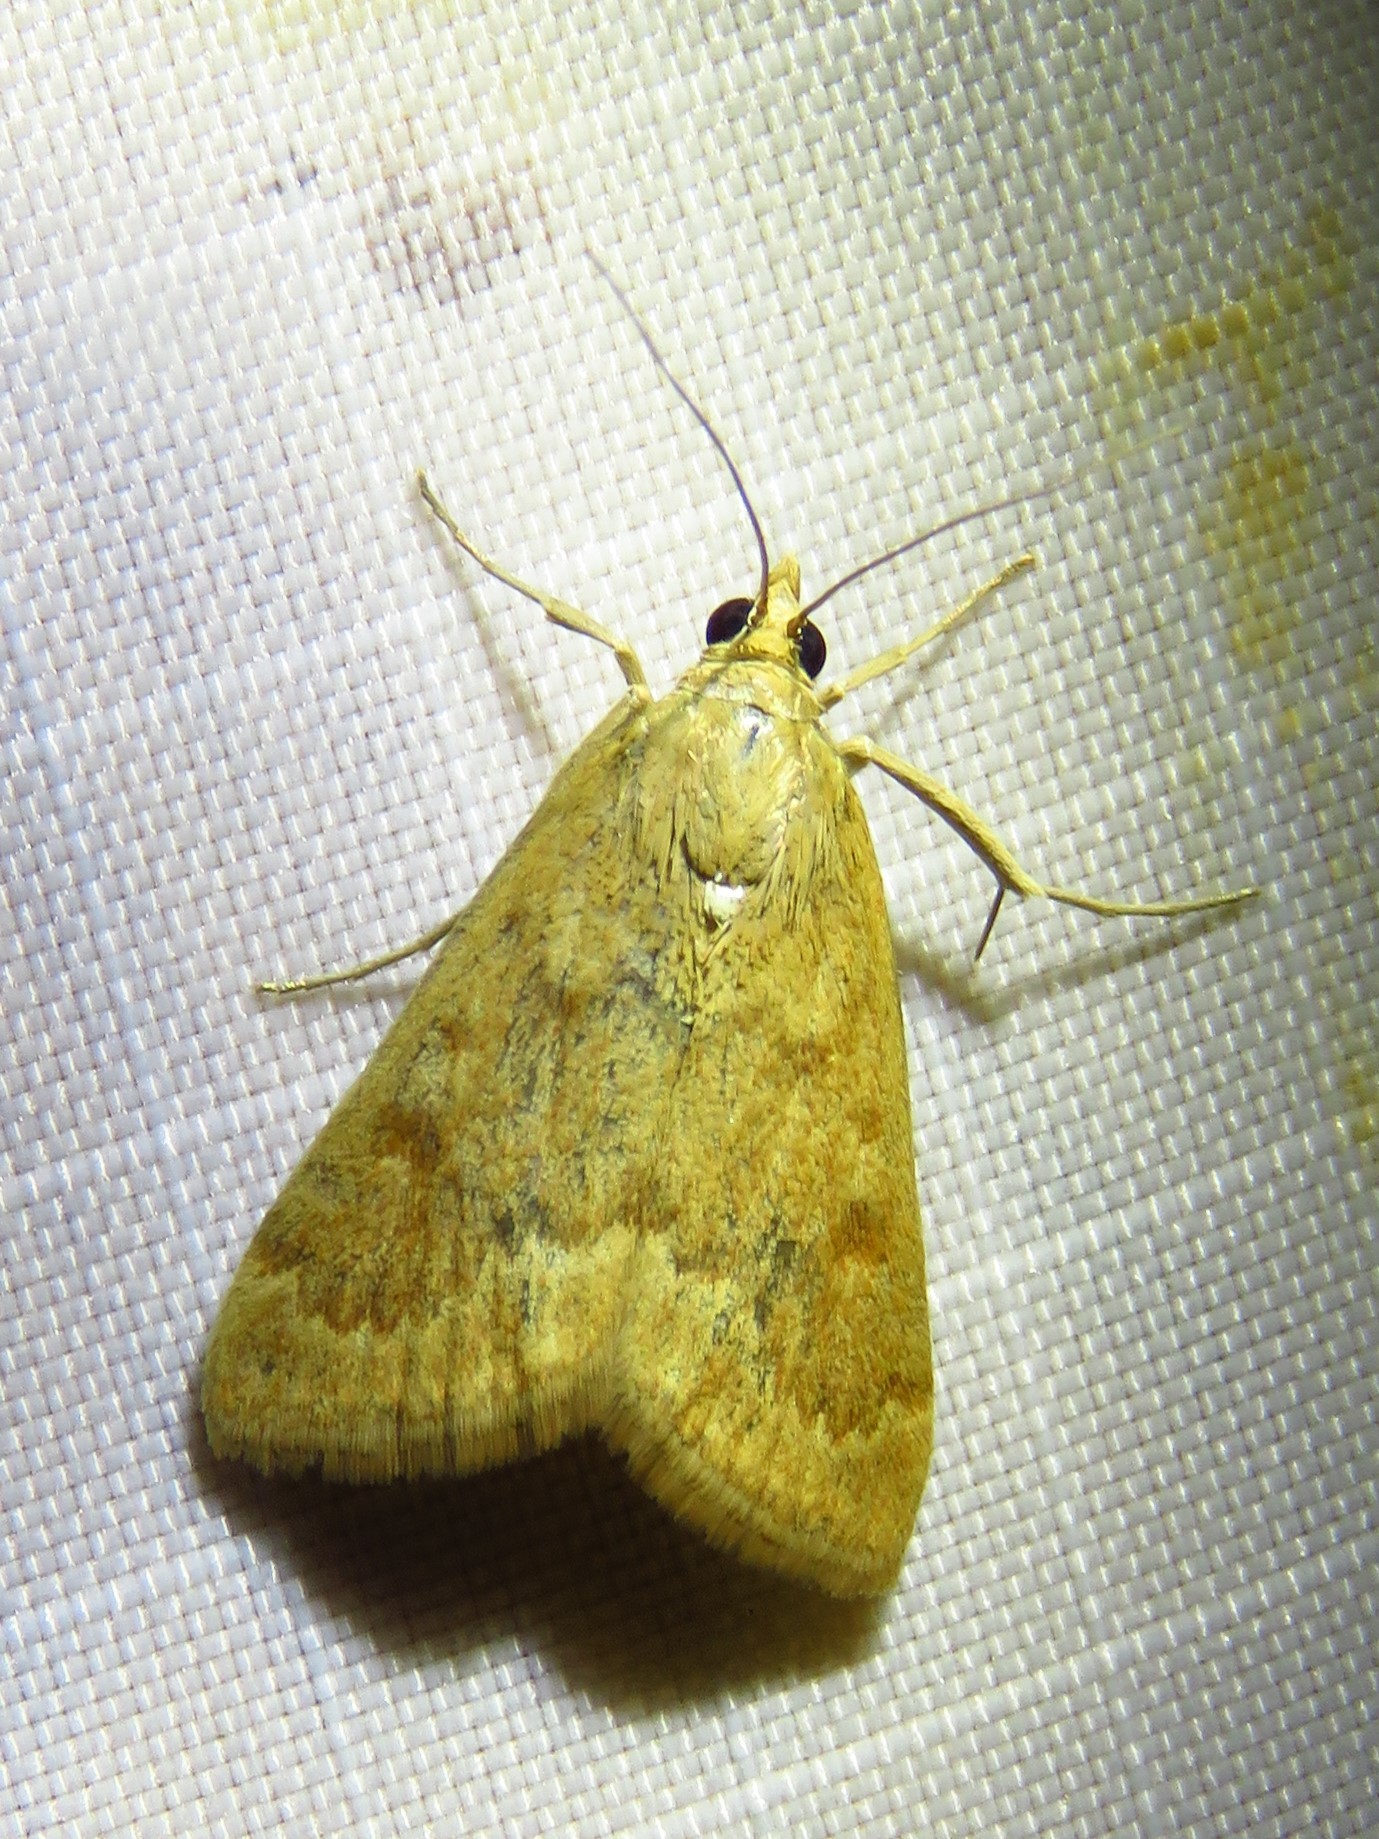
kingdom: Animalia
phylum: Arthropoda
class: Insecta
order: Lepidoptera
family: Crambidae
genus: Achyra
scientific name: Achyra rantalis
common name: Garden webworm
